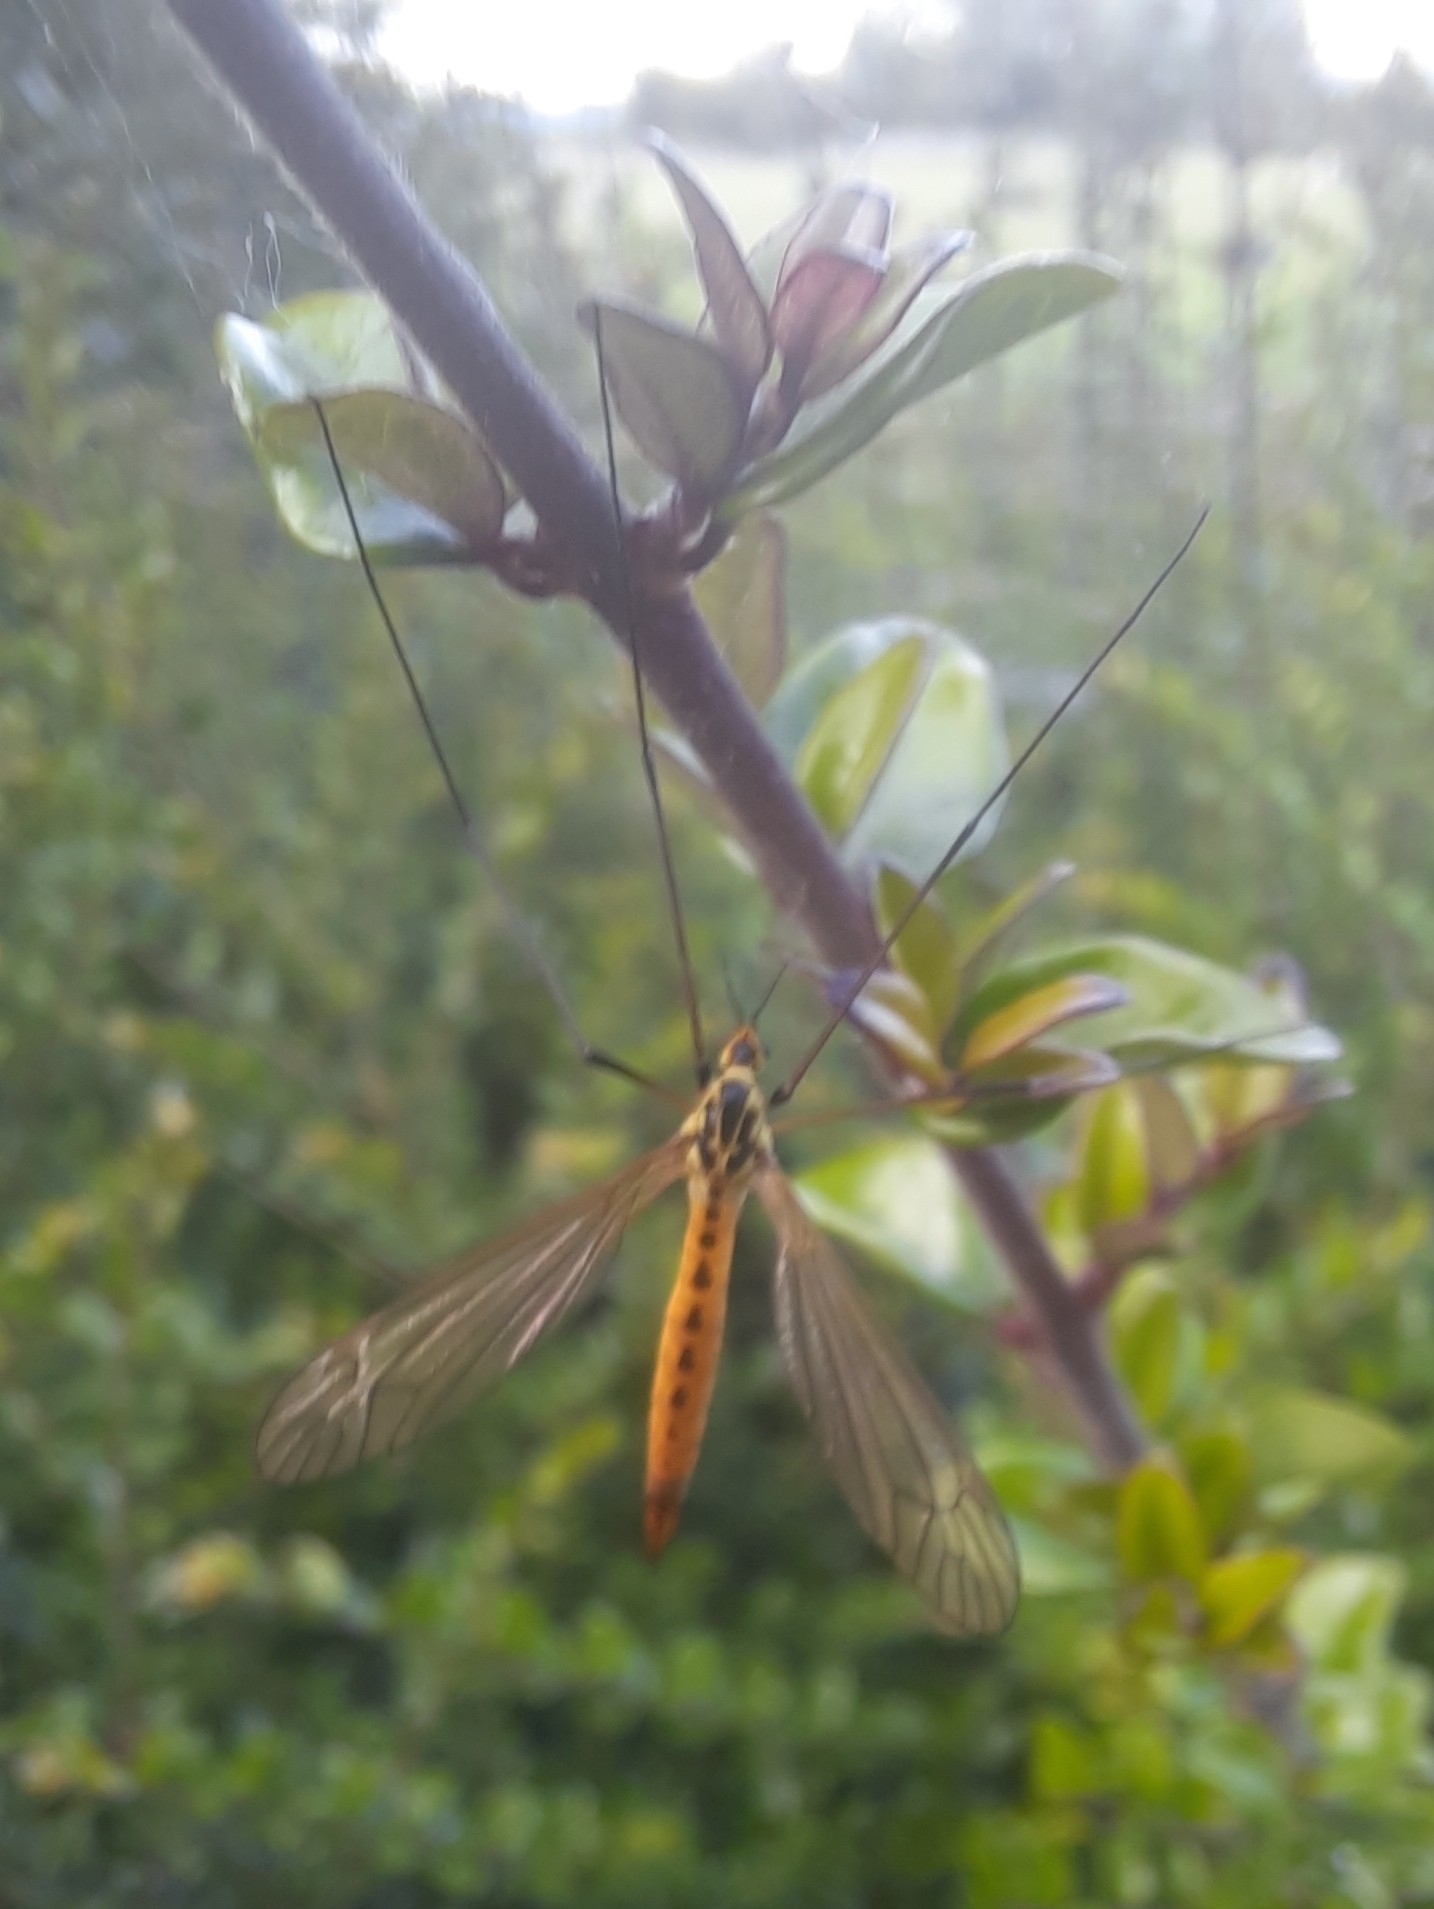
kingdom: Animalia
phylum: Arthropoda
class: Insecta
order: Diptera
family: Tipulidae
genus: Nephrotoma
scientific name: Nephrotoma flavescens
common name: Tiger cranefly
